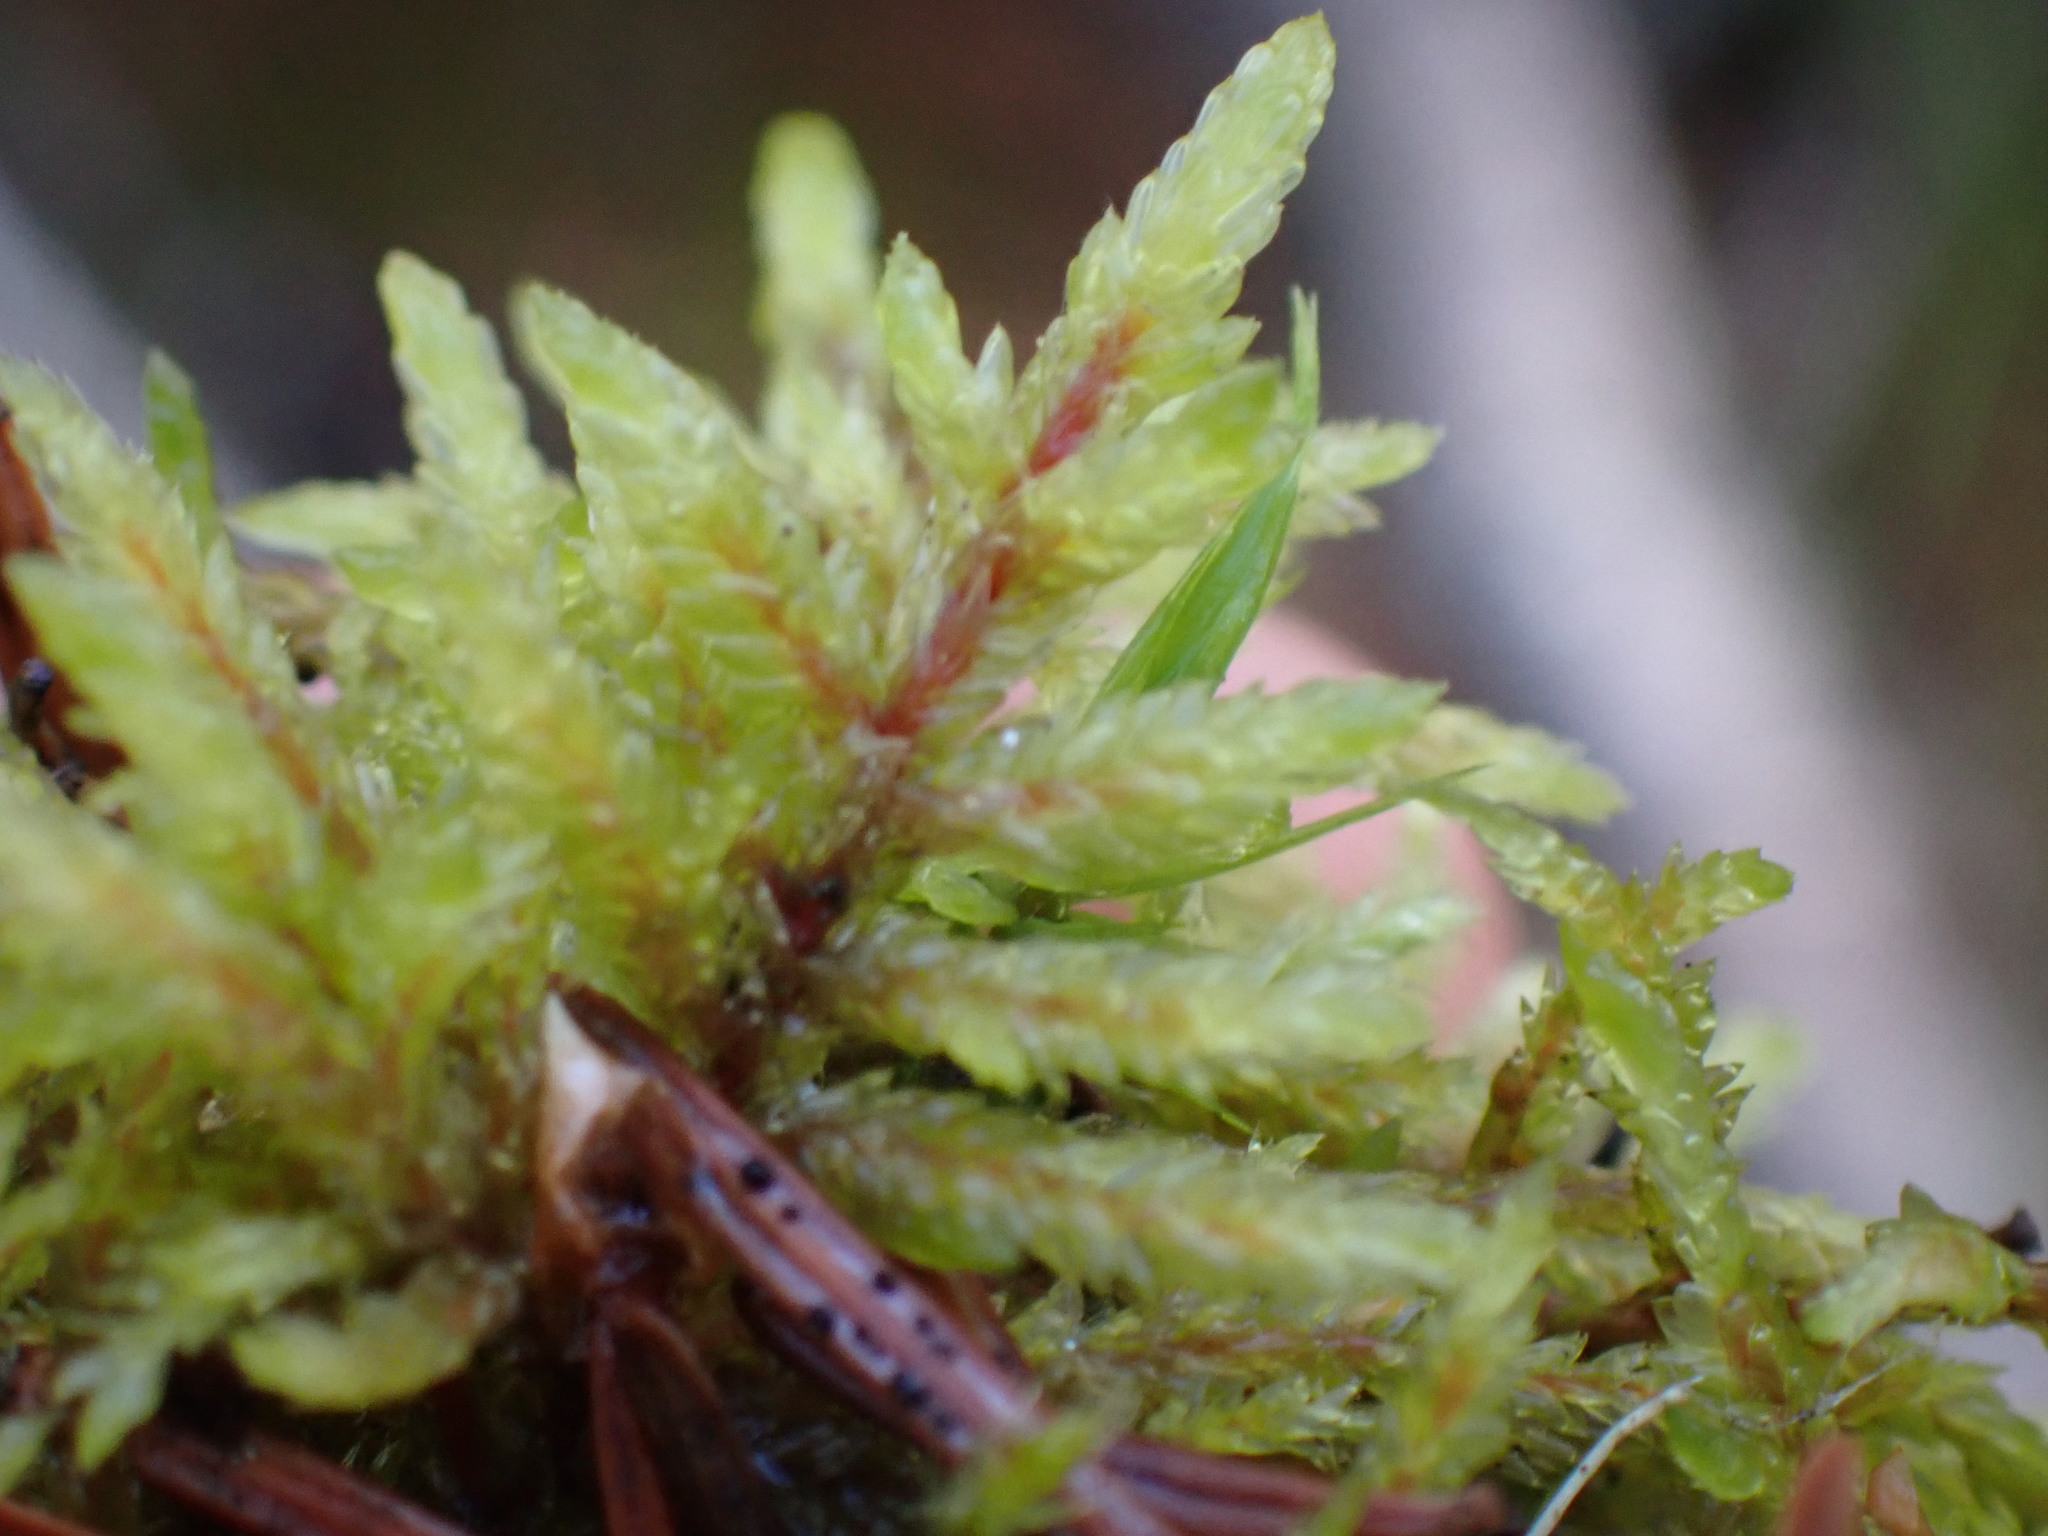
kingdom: Plantae
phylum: Bryophyta
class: Bryopsida
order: Hypnales
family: Hylocomiaceae
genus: Pleurozium
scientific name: Pleurozium schreberi
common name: Red-stemmed feather moss
